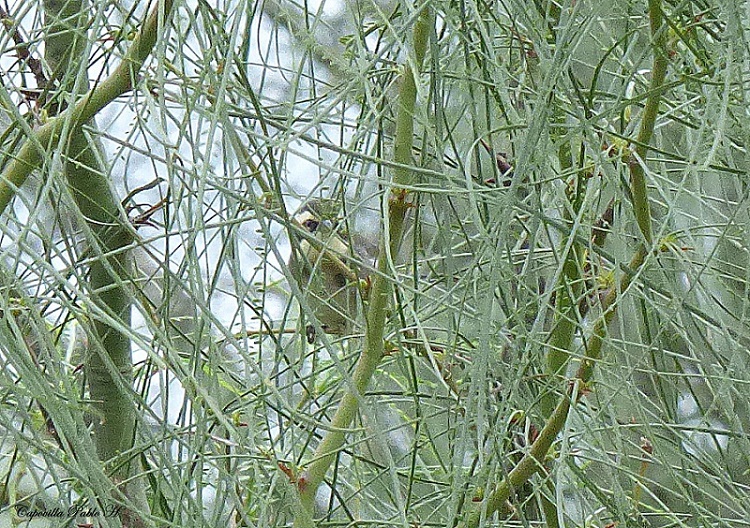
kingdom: Animalia
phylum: Chordata
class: Aves
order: Passeriformes
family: Thraupidae
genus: Microspingus
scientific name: Microspingus torquatus
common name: Ringed warbling-finch
